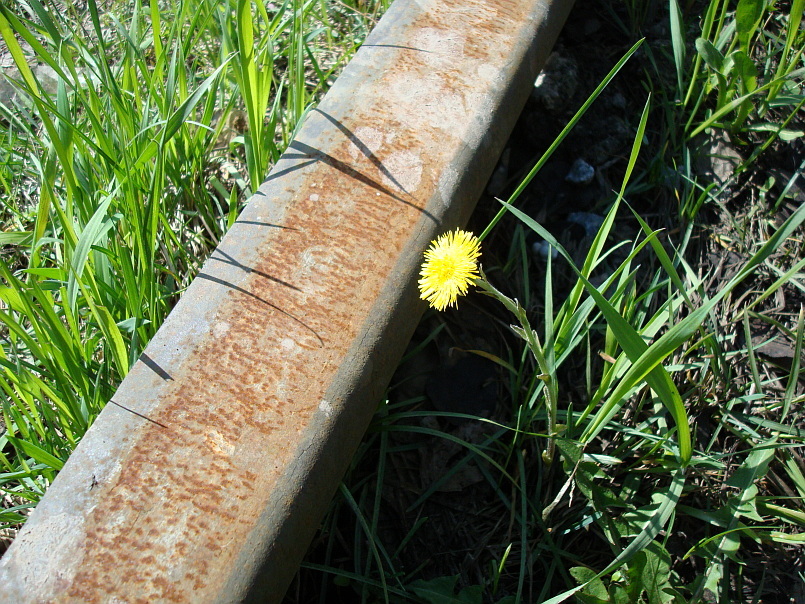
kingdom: Plantae
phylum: Tracheophyta
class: Magnoliopsida
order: Asterales
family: Asteraceae
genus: Tussilago
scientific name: Tussilago farfara
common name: Coltsfoot
